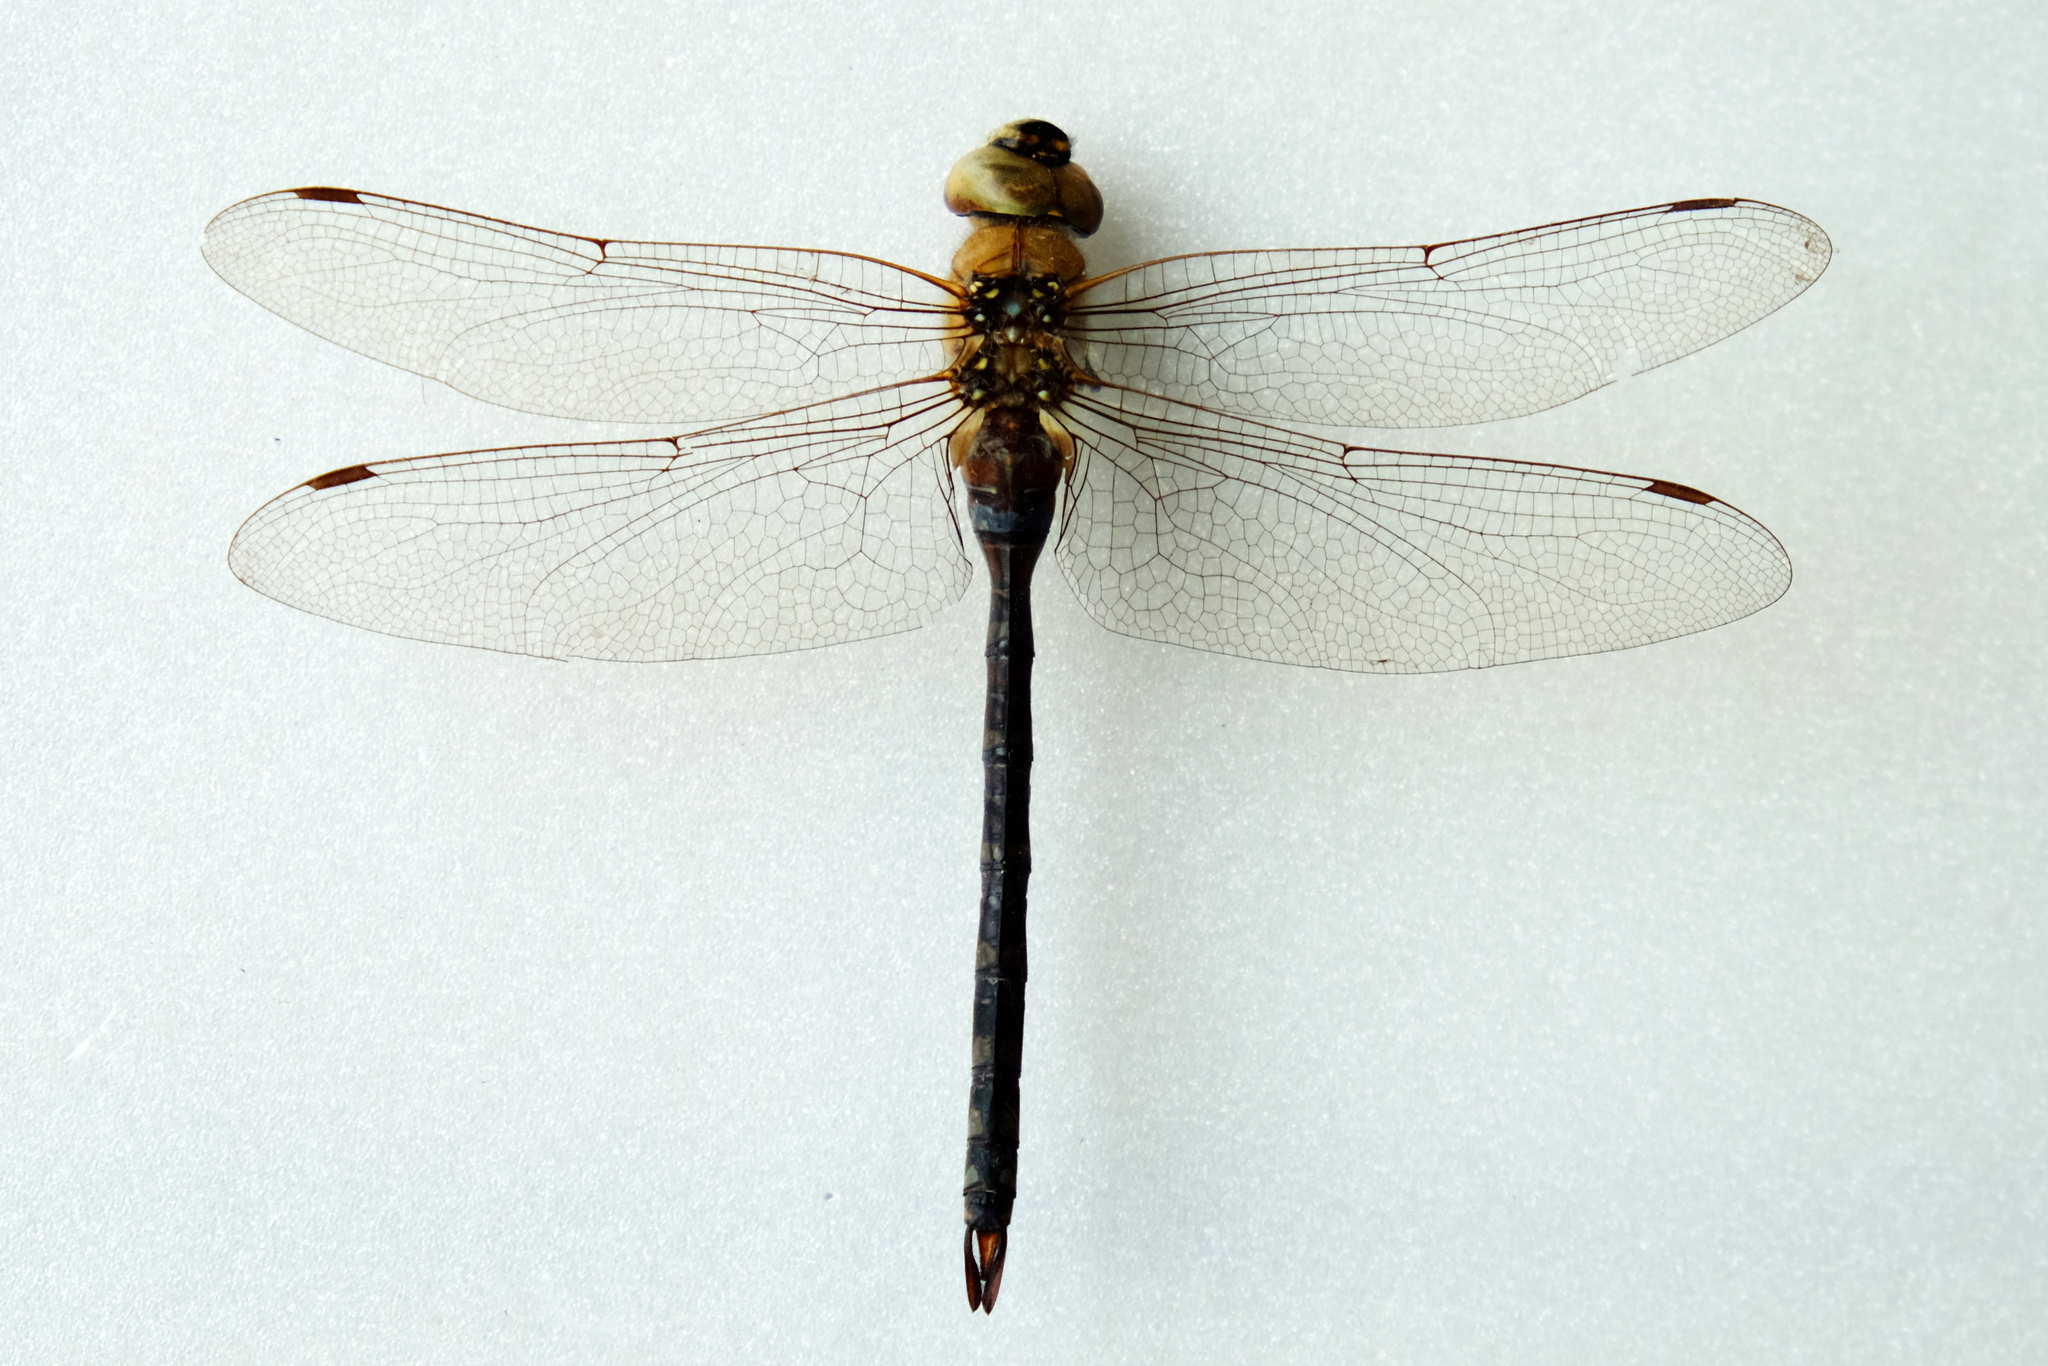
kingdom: Animalia
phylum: Arthropoda
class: Insecta
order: Odonata
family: Aeshnidae
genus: Aeshna
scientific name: Aeshna mixta
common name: Migrant hawker
